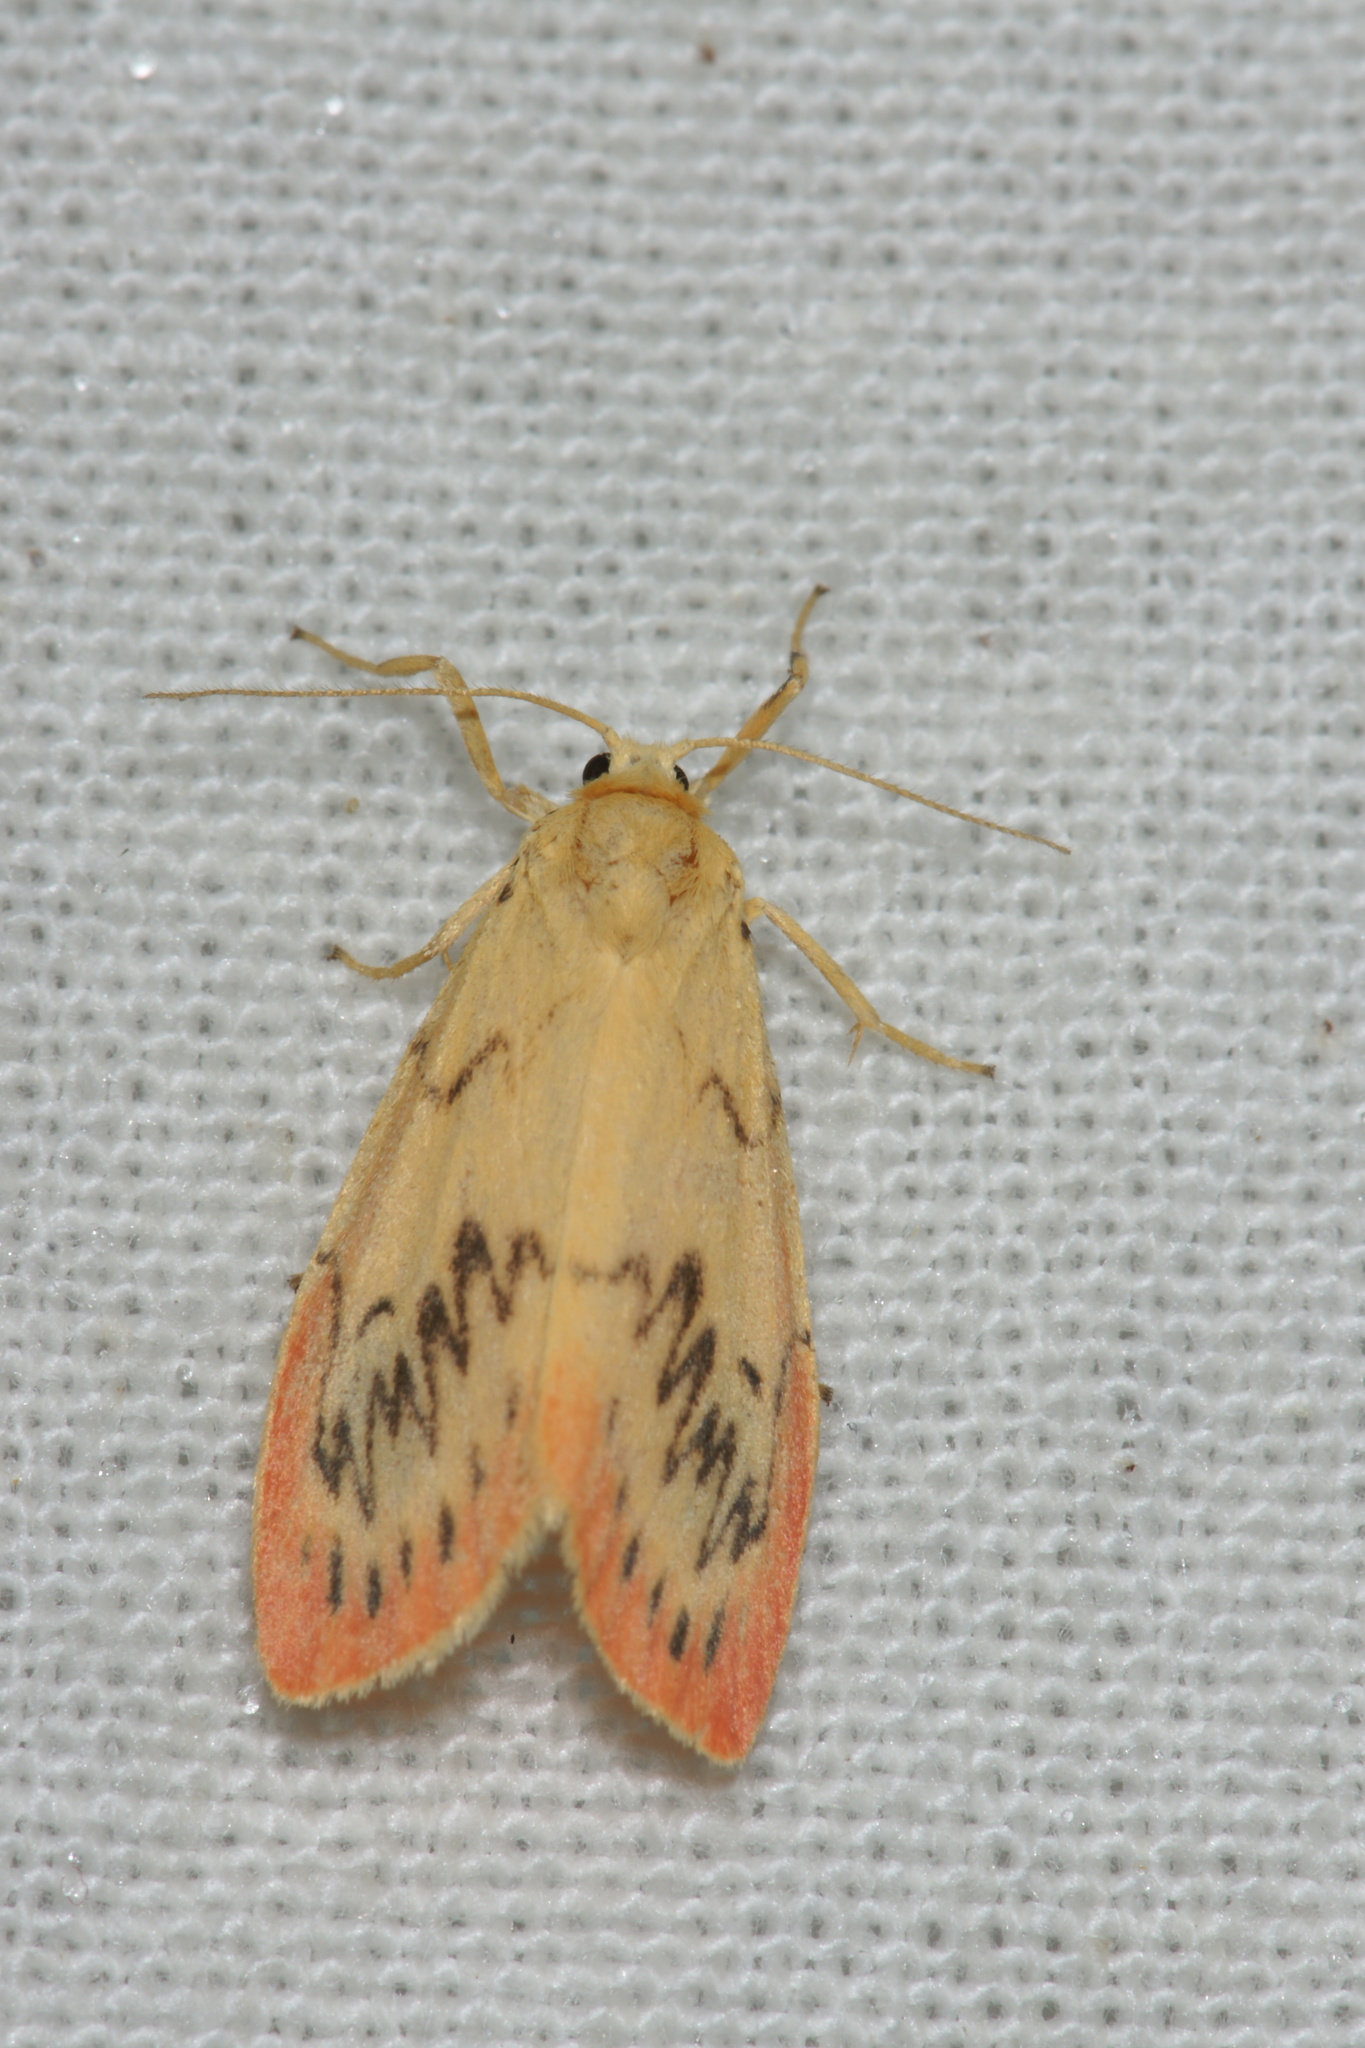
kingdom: Animalia
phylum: Arthropoda
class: Insecta
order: Lepidoptera
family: Erebidae
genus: Miltochrista
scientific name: Miltochrista miniata
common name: Rosy footman
